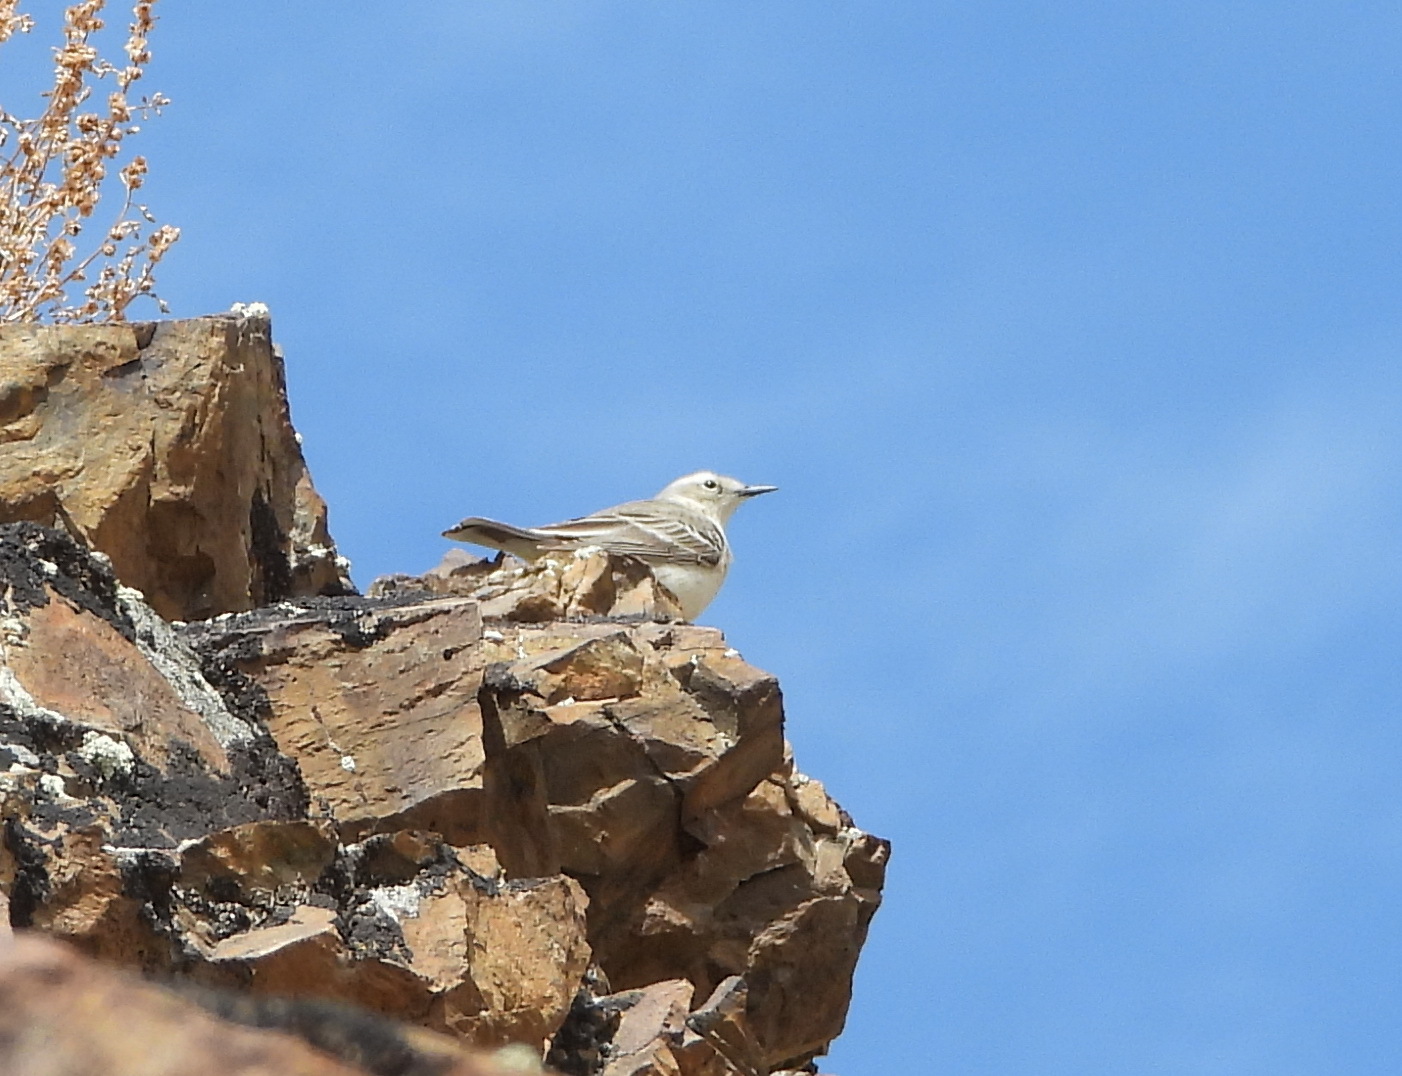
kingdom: Animalia
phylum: Chordata
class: Aves
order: Passeriformes
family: Motacillidae
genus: Anthus
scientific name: Anthus spinoletta
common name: Water pipit
